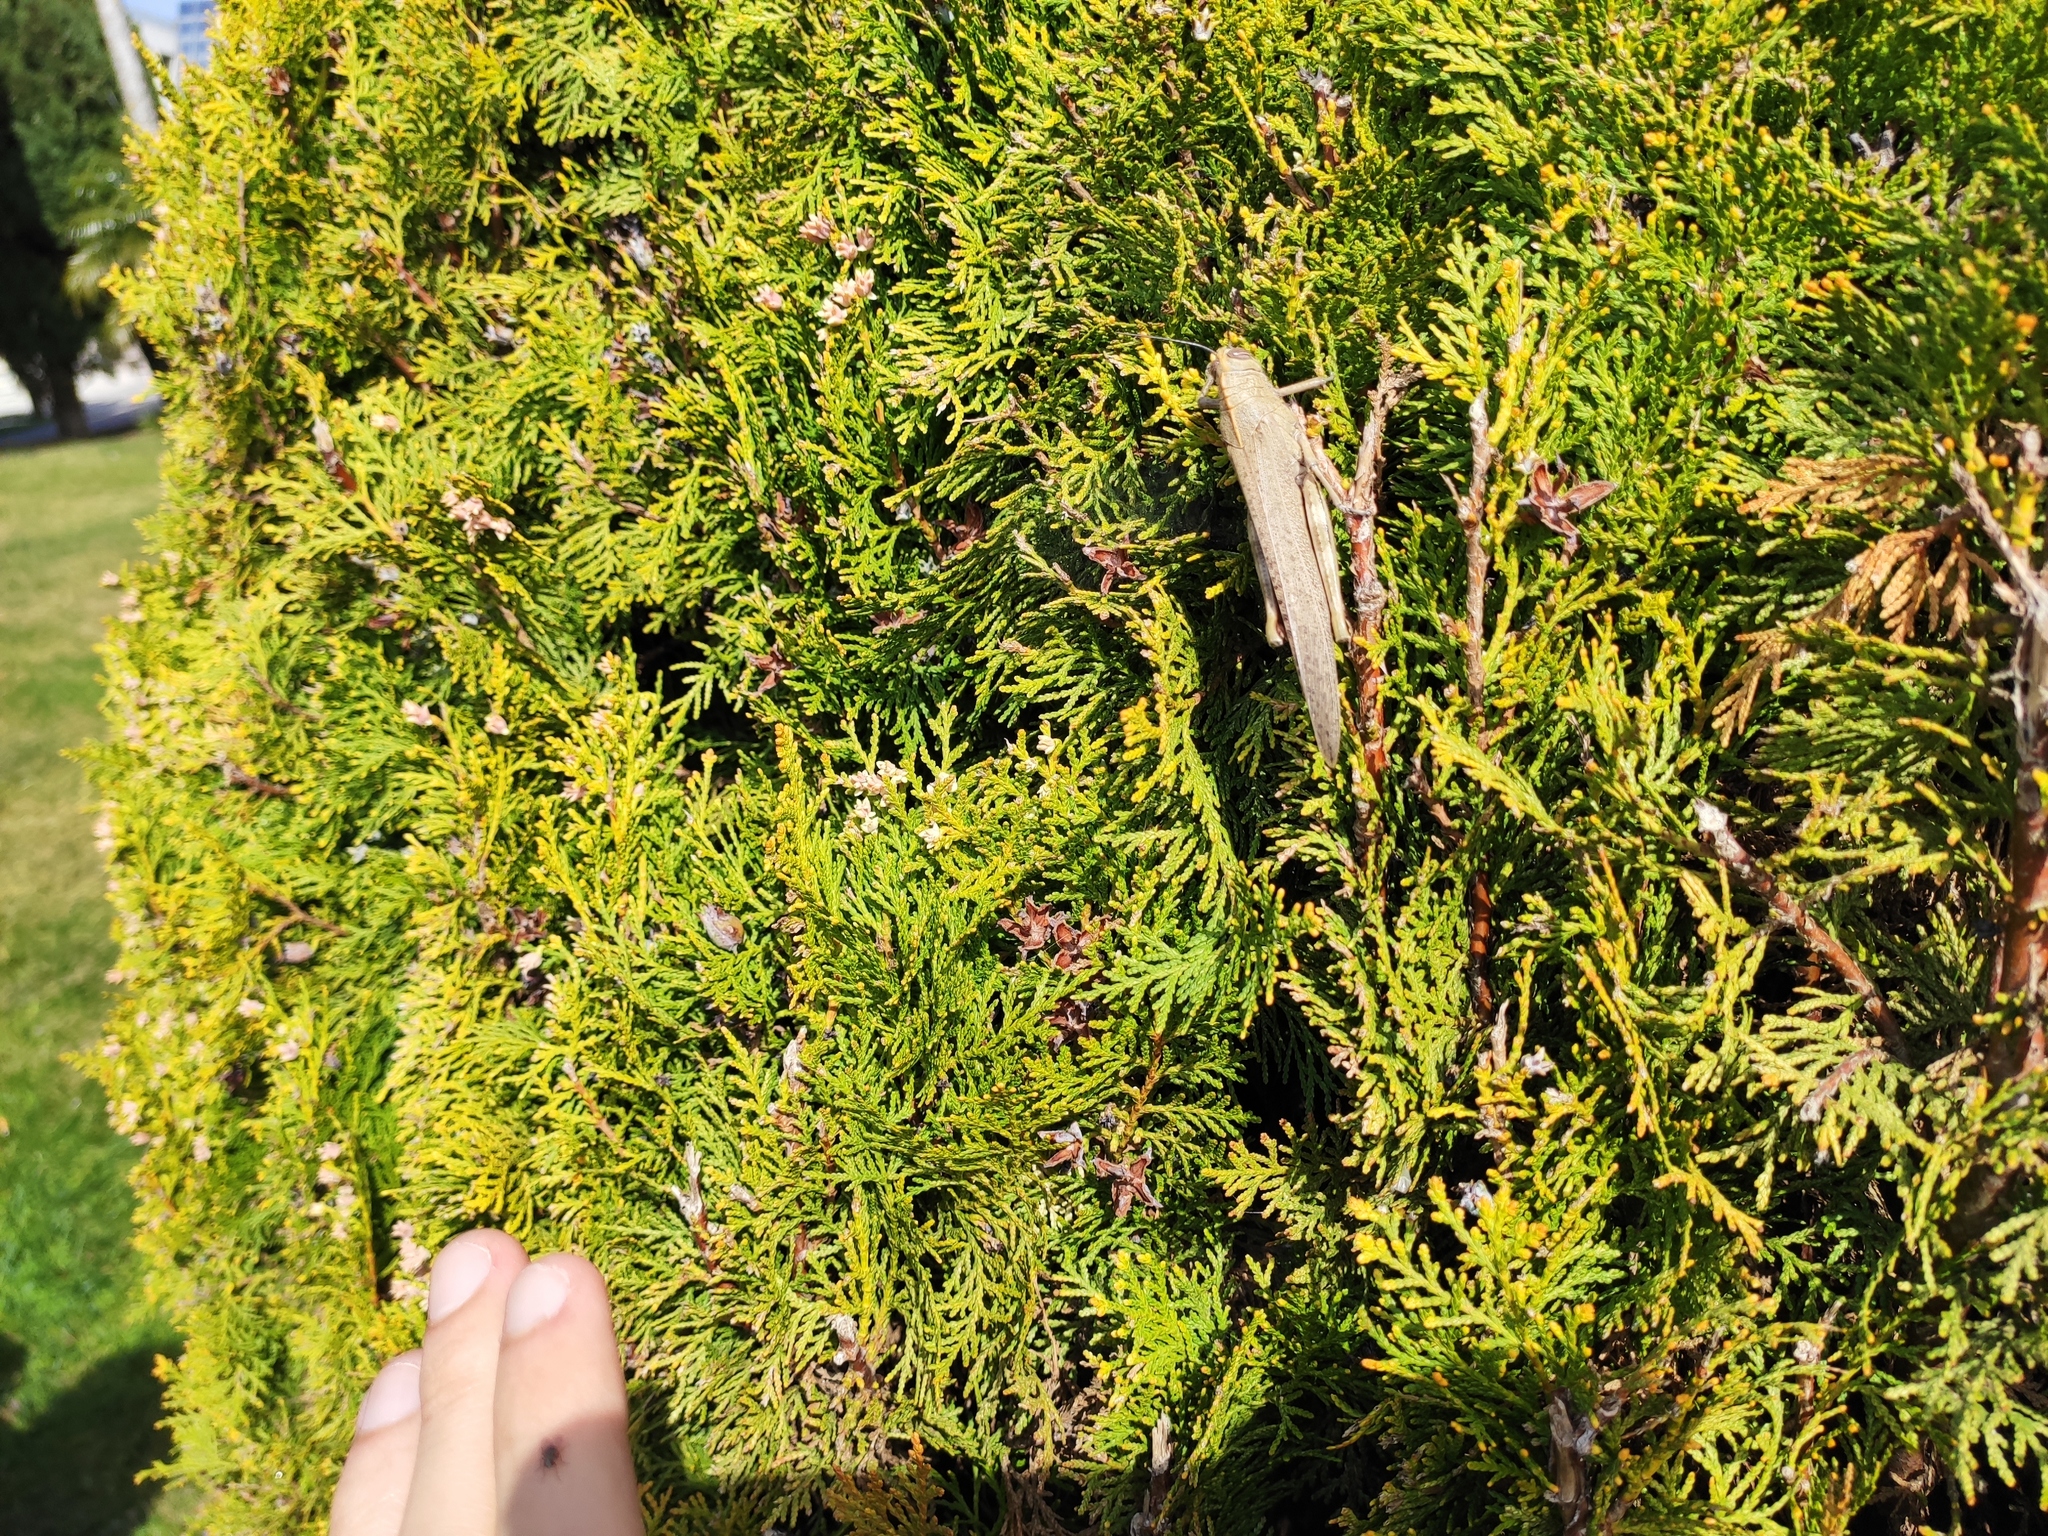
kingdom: Animalia
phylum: Arthropoda
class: Insecta
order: Orthoptera
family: Acrididae
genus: Anacridium
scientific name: Anacridium aegyptium
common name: Egyptian grasshopper
